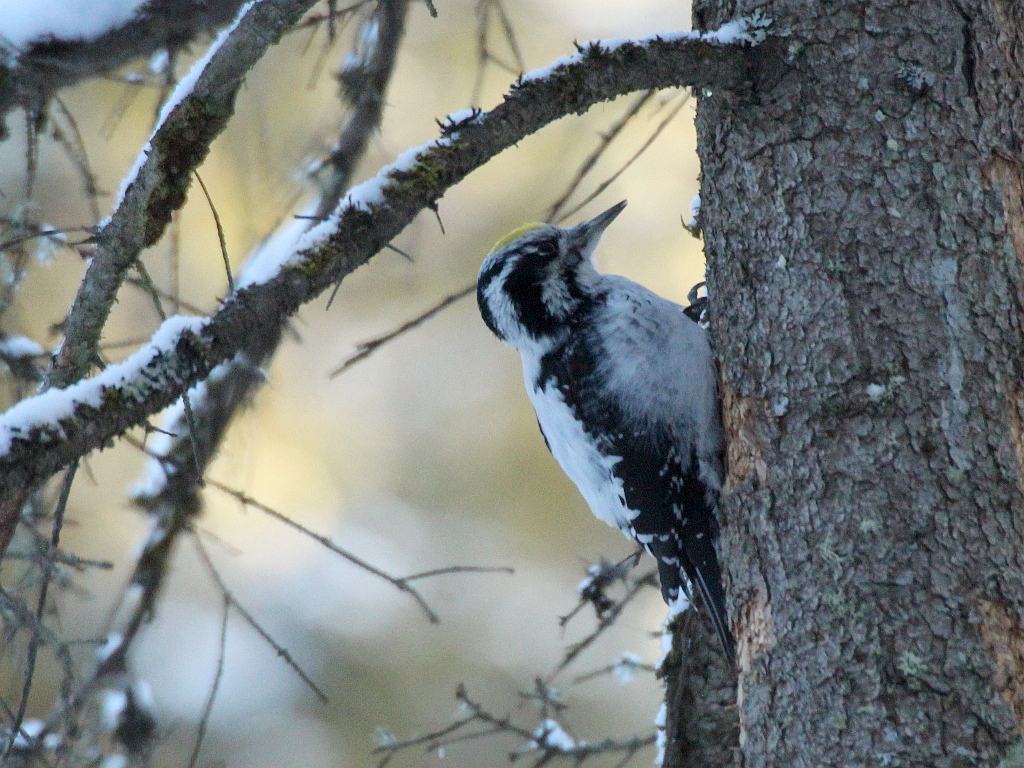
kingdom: Animalia
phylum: Chordata
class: Aves
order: Piciformes
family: Picidae
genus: Picoides
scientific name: Picoides tridactylus
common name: Eurasian three-toed woodpecker
